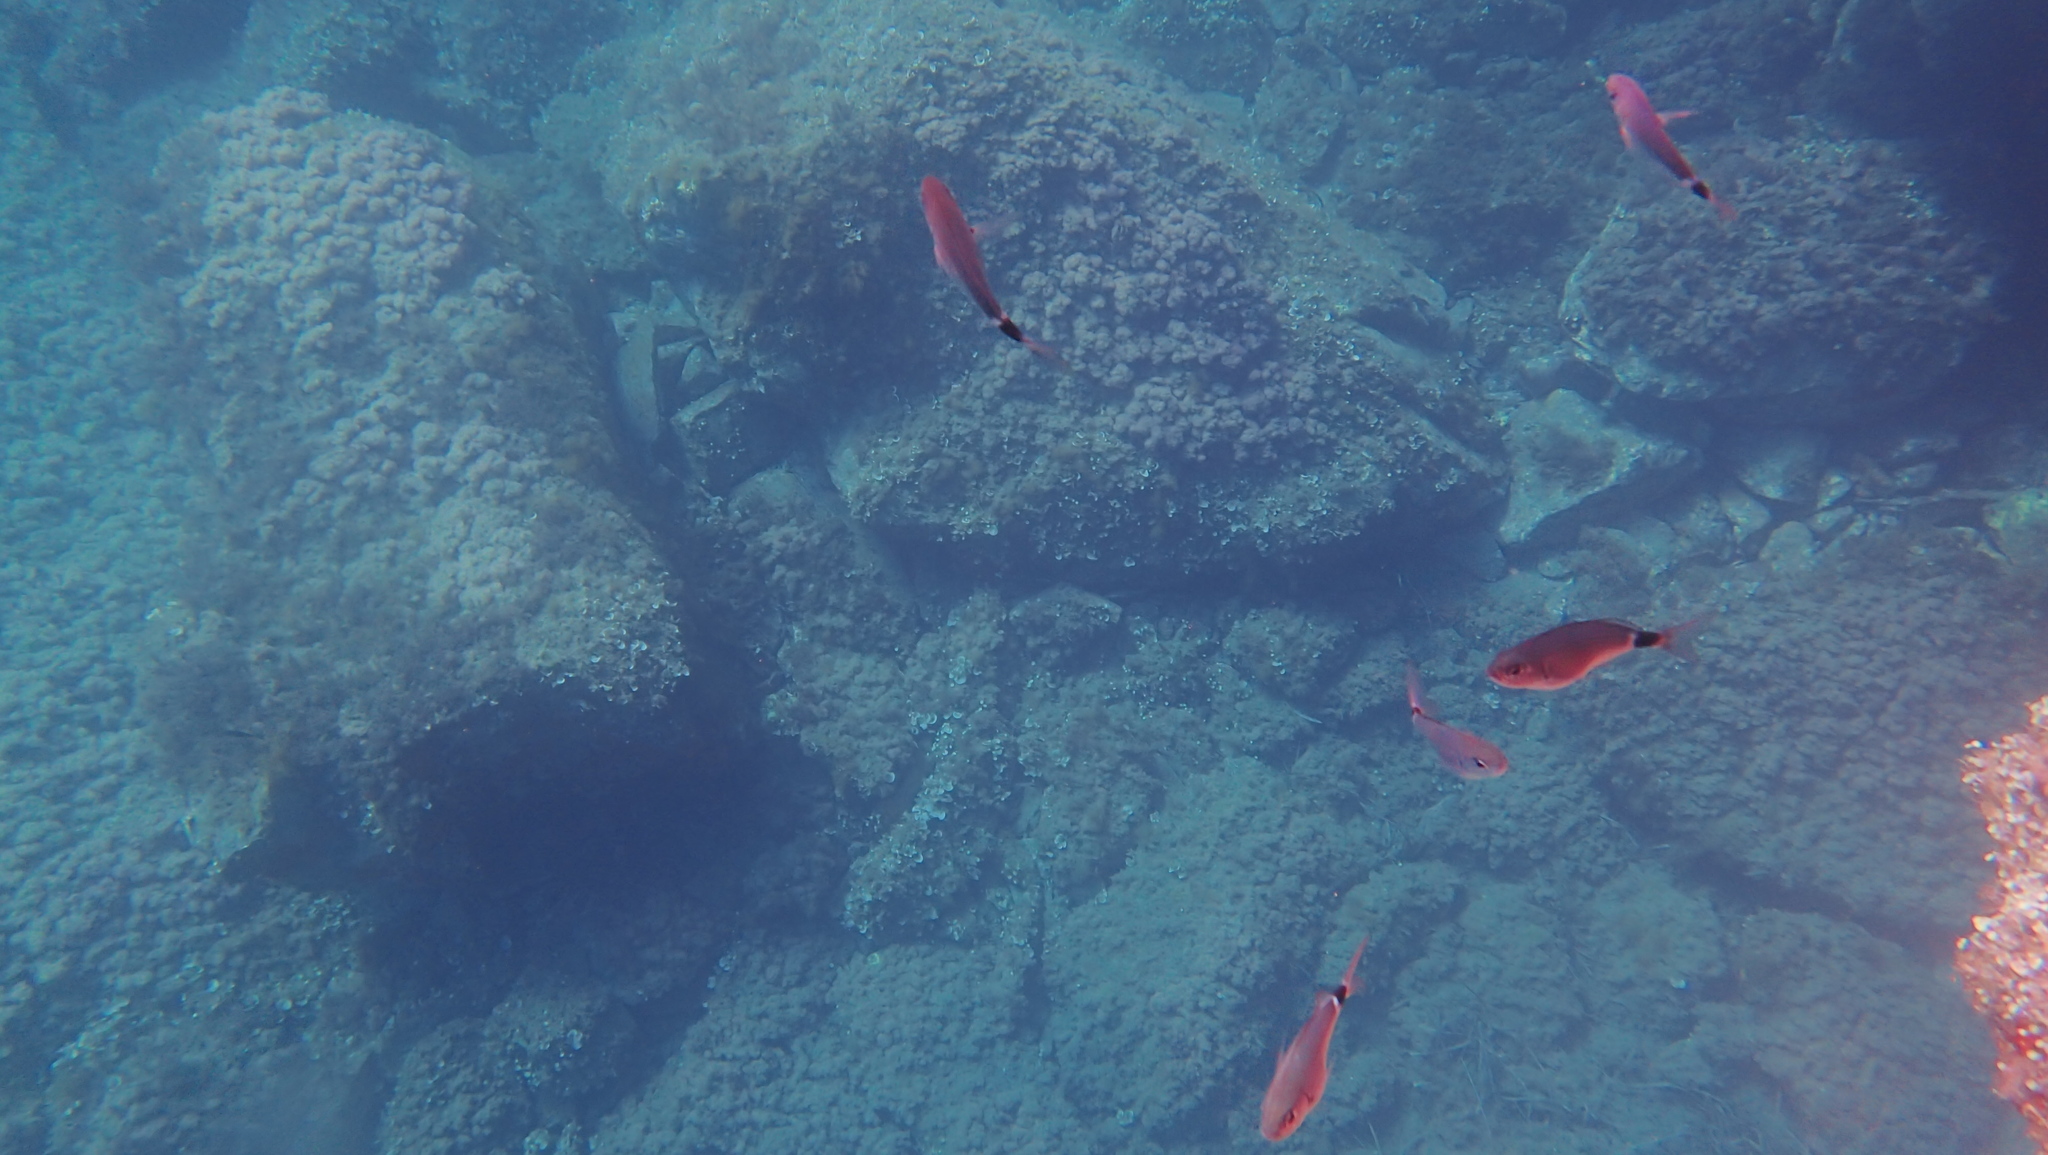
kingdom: Animalia
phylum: Chordata
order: Perciformes
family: Sparidae
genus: Oblada
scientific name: Oblada melanura
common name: Saddled seabream
